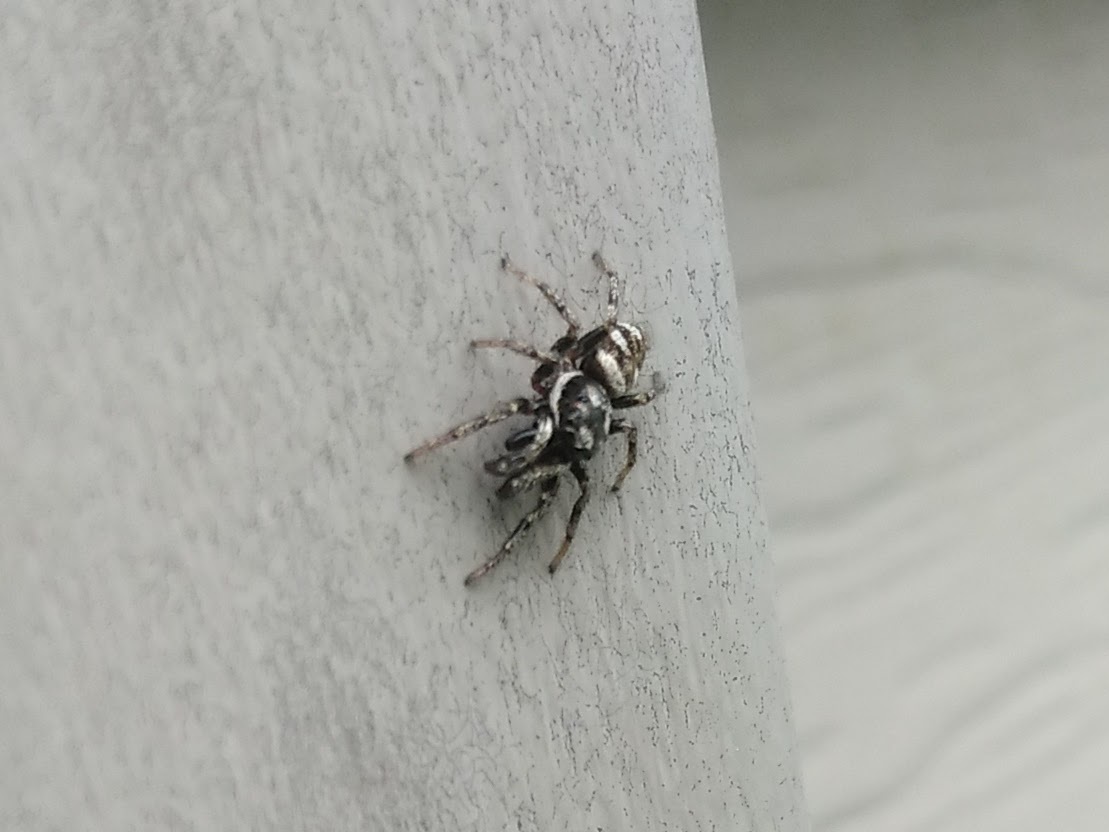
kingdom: Animalia
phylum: Arthropoda
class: Arachnida
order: Araneae
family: Salticidae
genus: Salticus
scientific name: Salticus scenicus
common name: Zebra jumper
